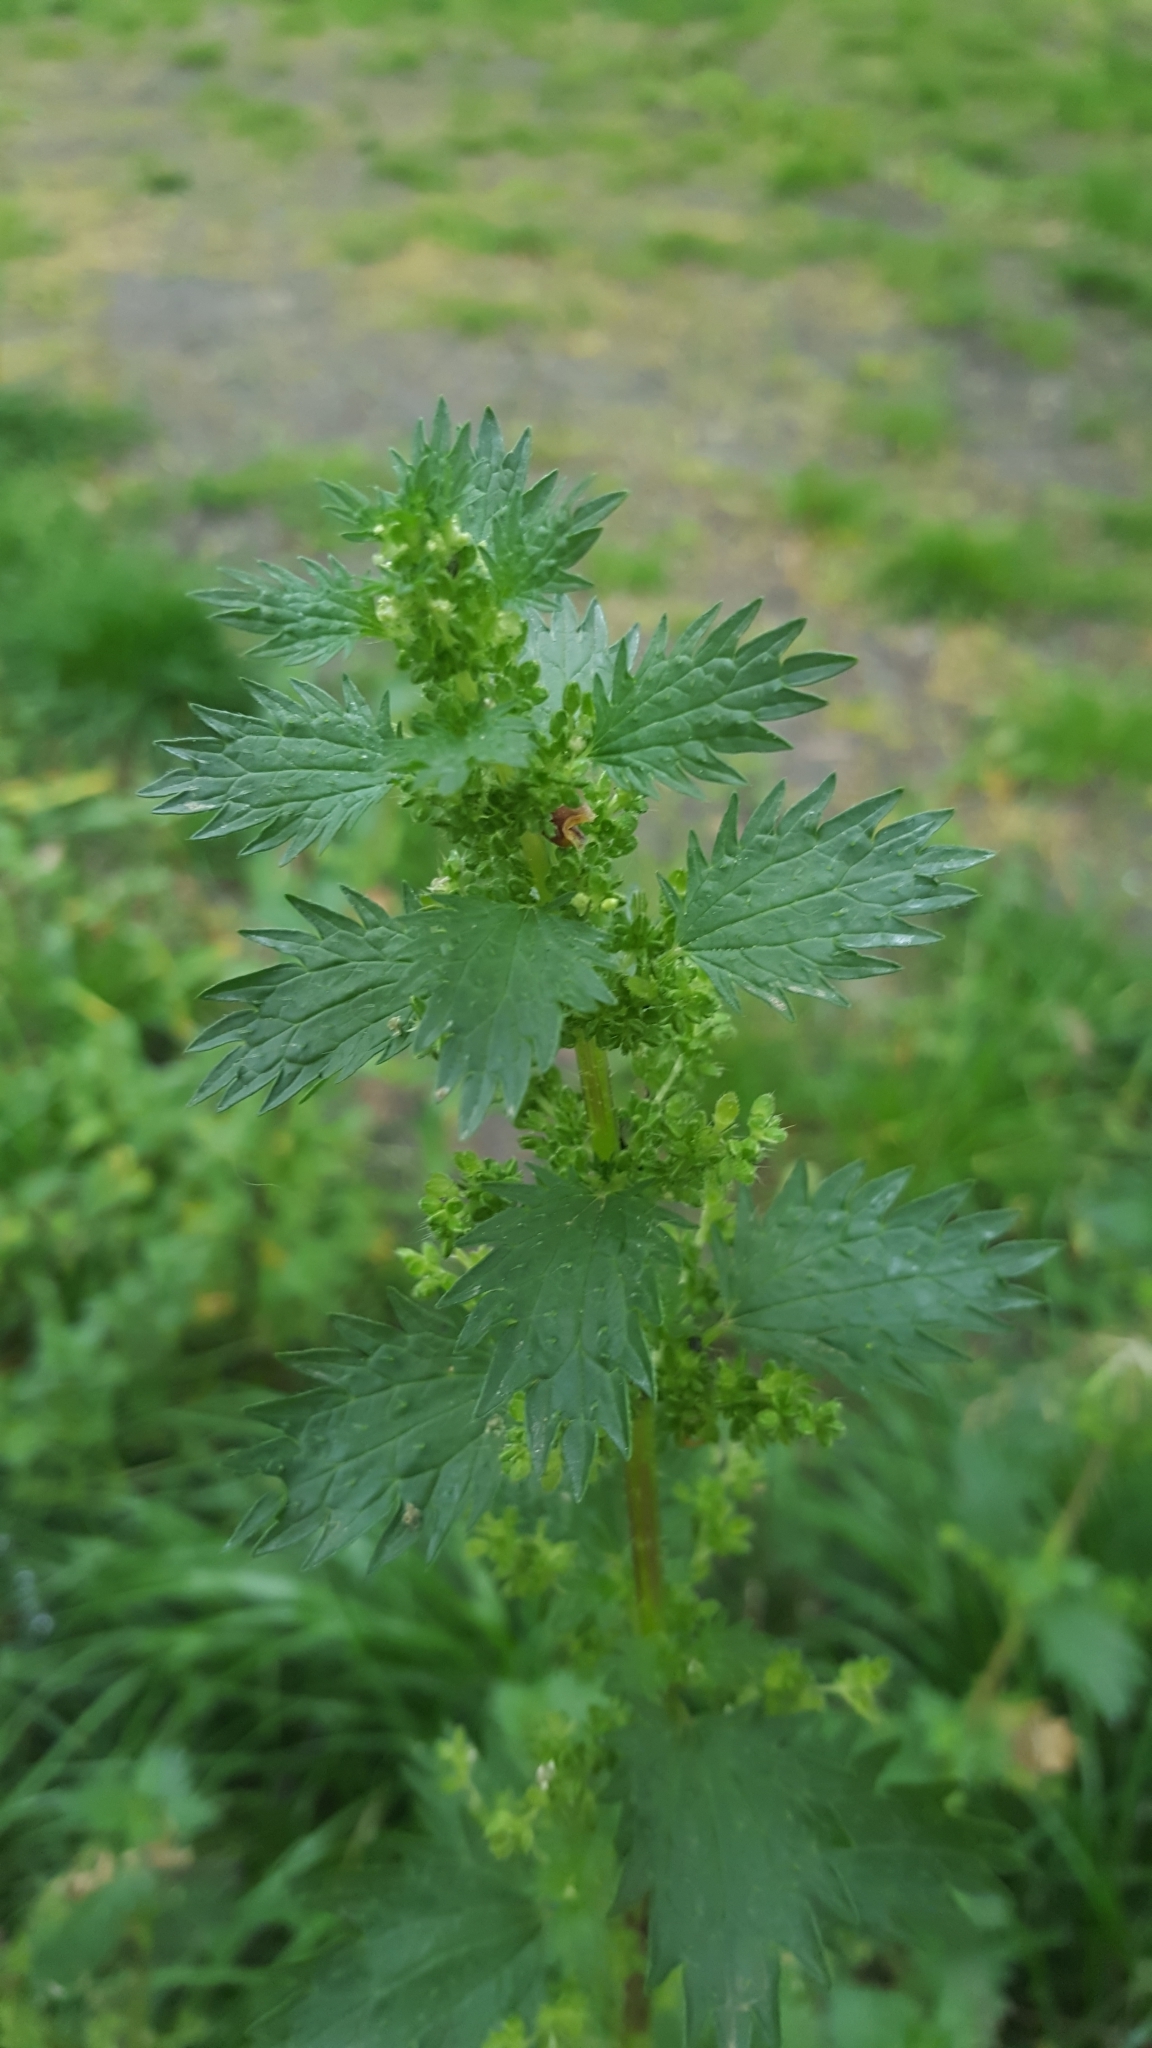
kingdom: Plantae
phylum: Tracheophyta
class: Magnoliopsida
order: Rosales
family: Urticaceae
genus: Urtica
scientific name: Urtica urens
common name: Dwarf nettle
